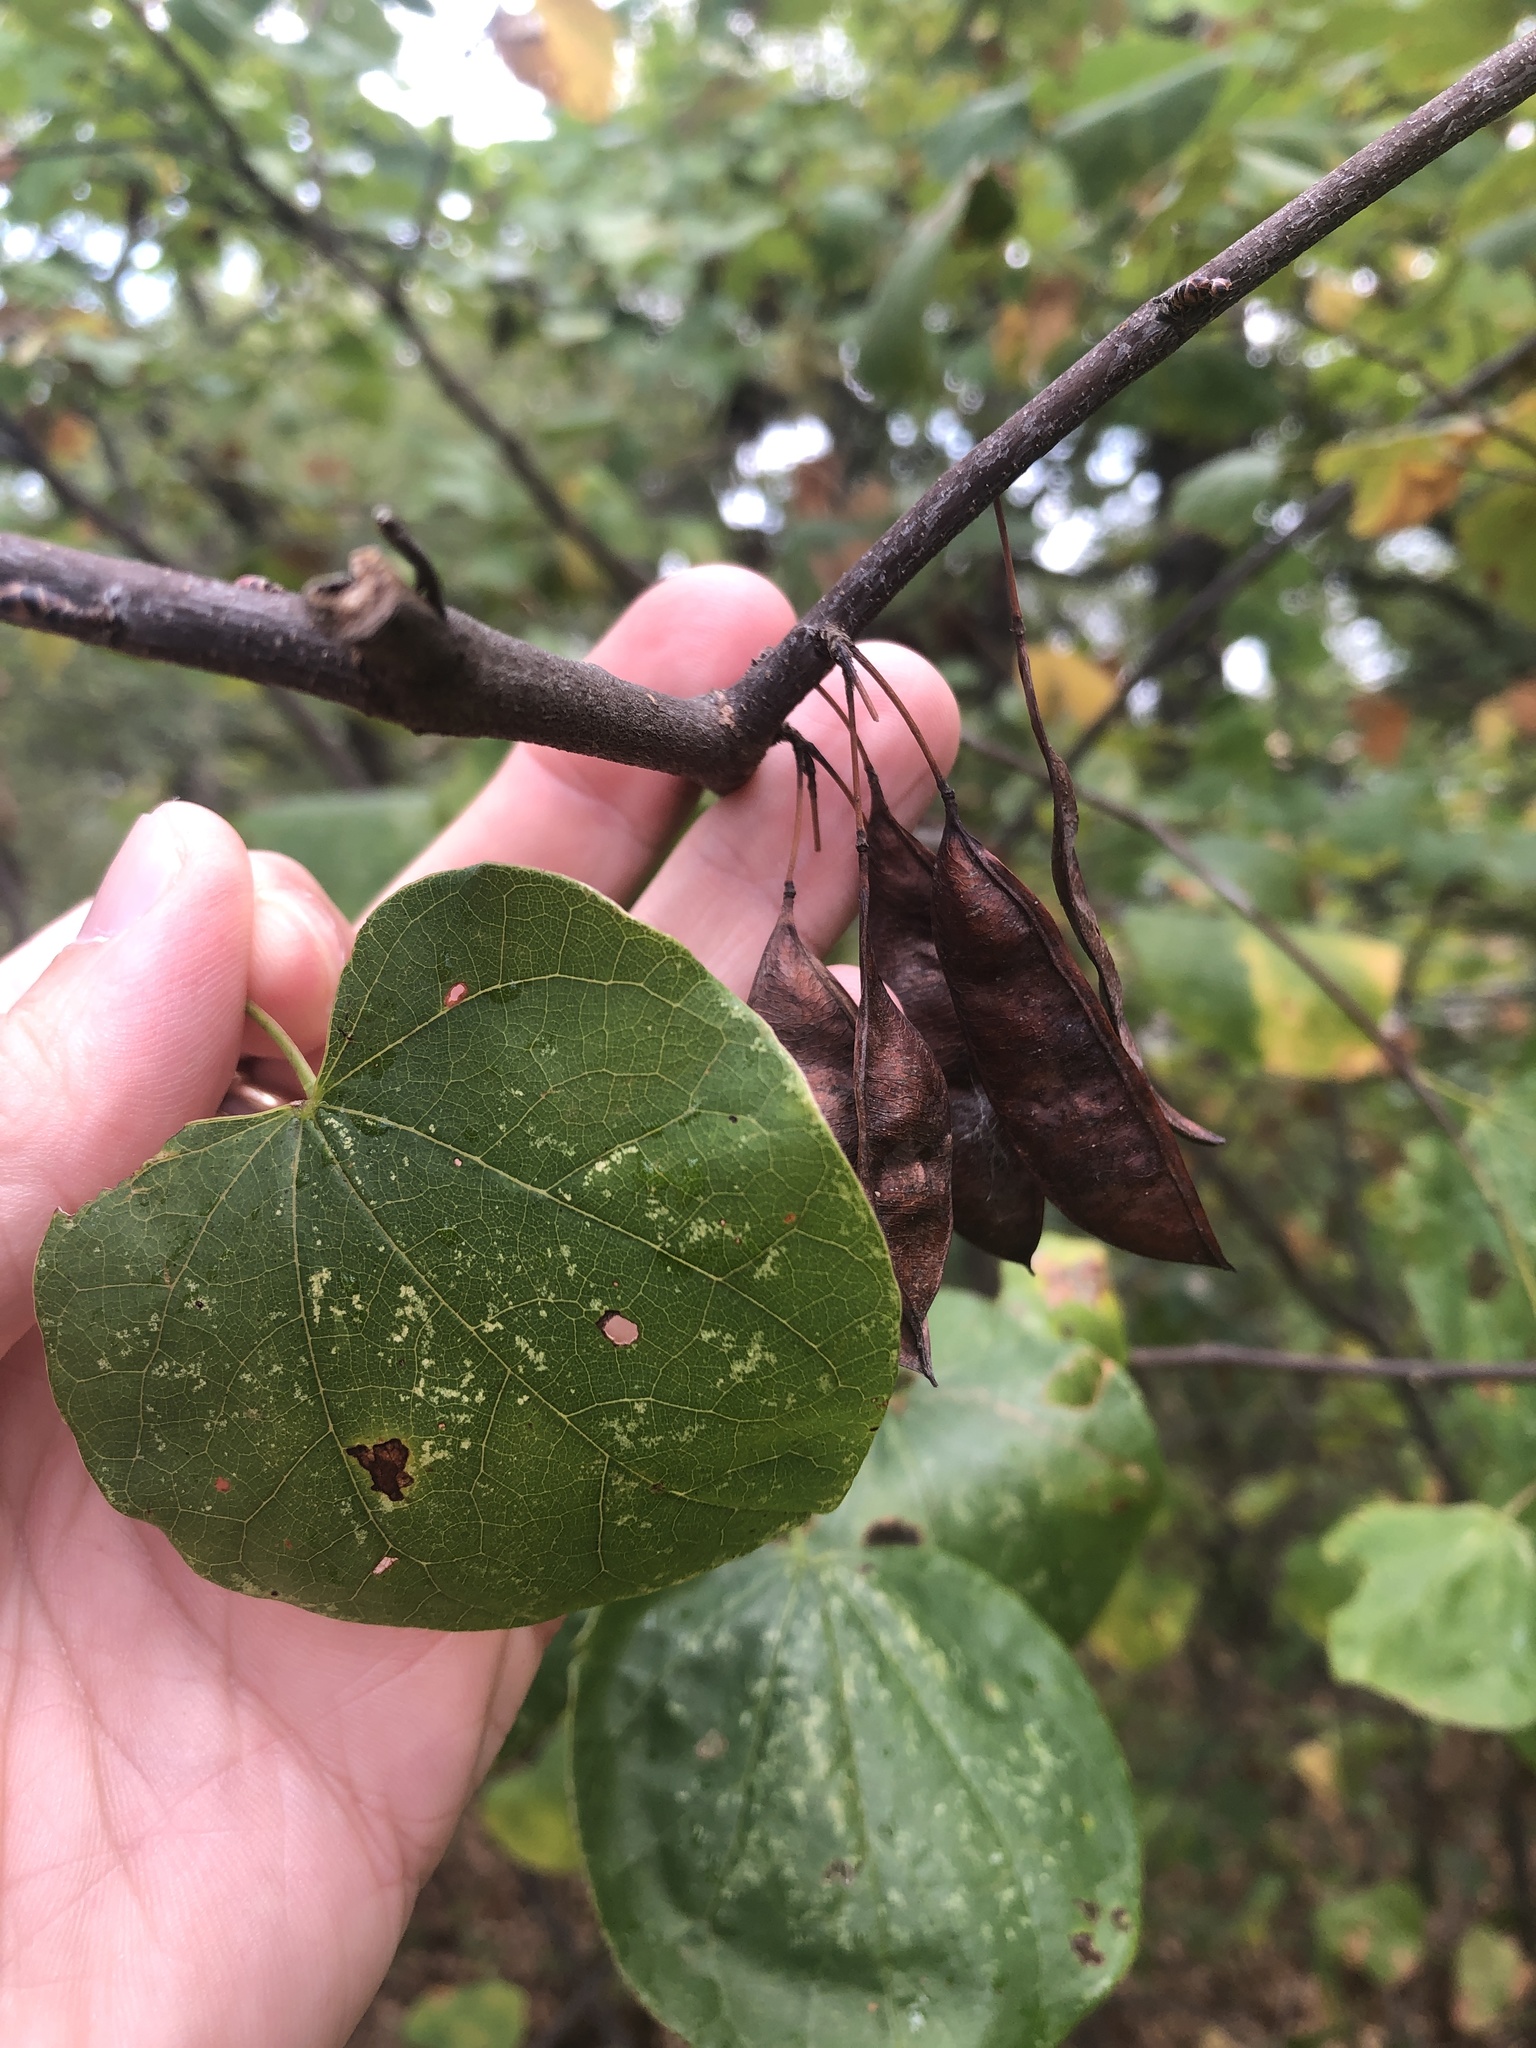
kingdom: Plantae
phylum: Tracheophyta
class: Magnoliopsida
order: Fabales
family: Fabaceae
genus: Cercis
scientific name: Cercis canadensis
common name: Eastern redbud
